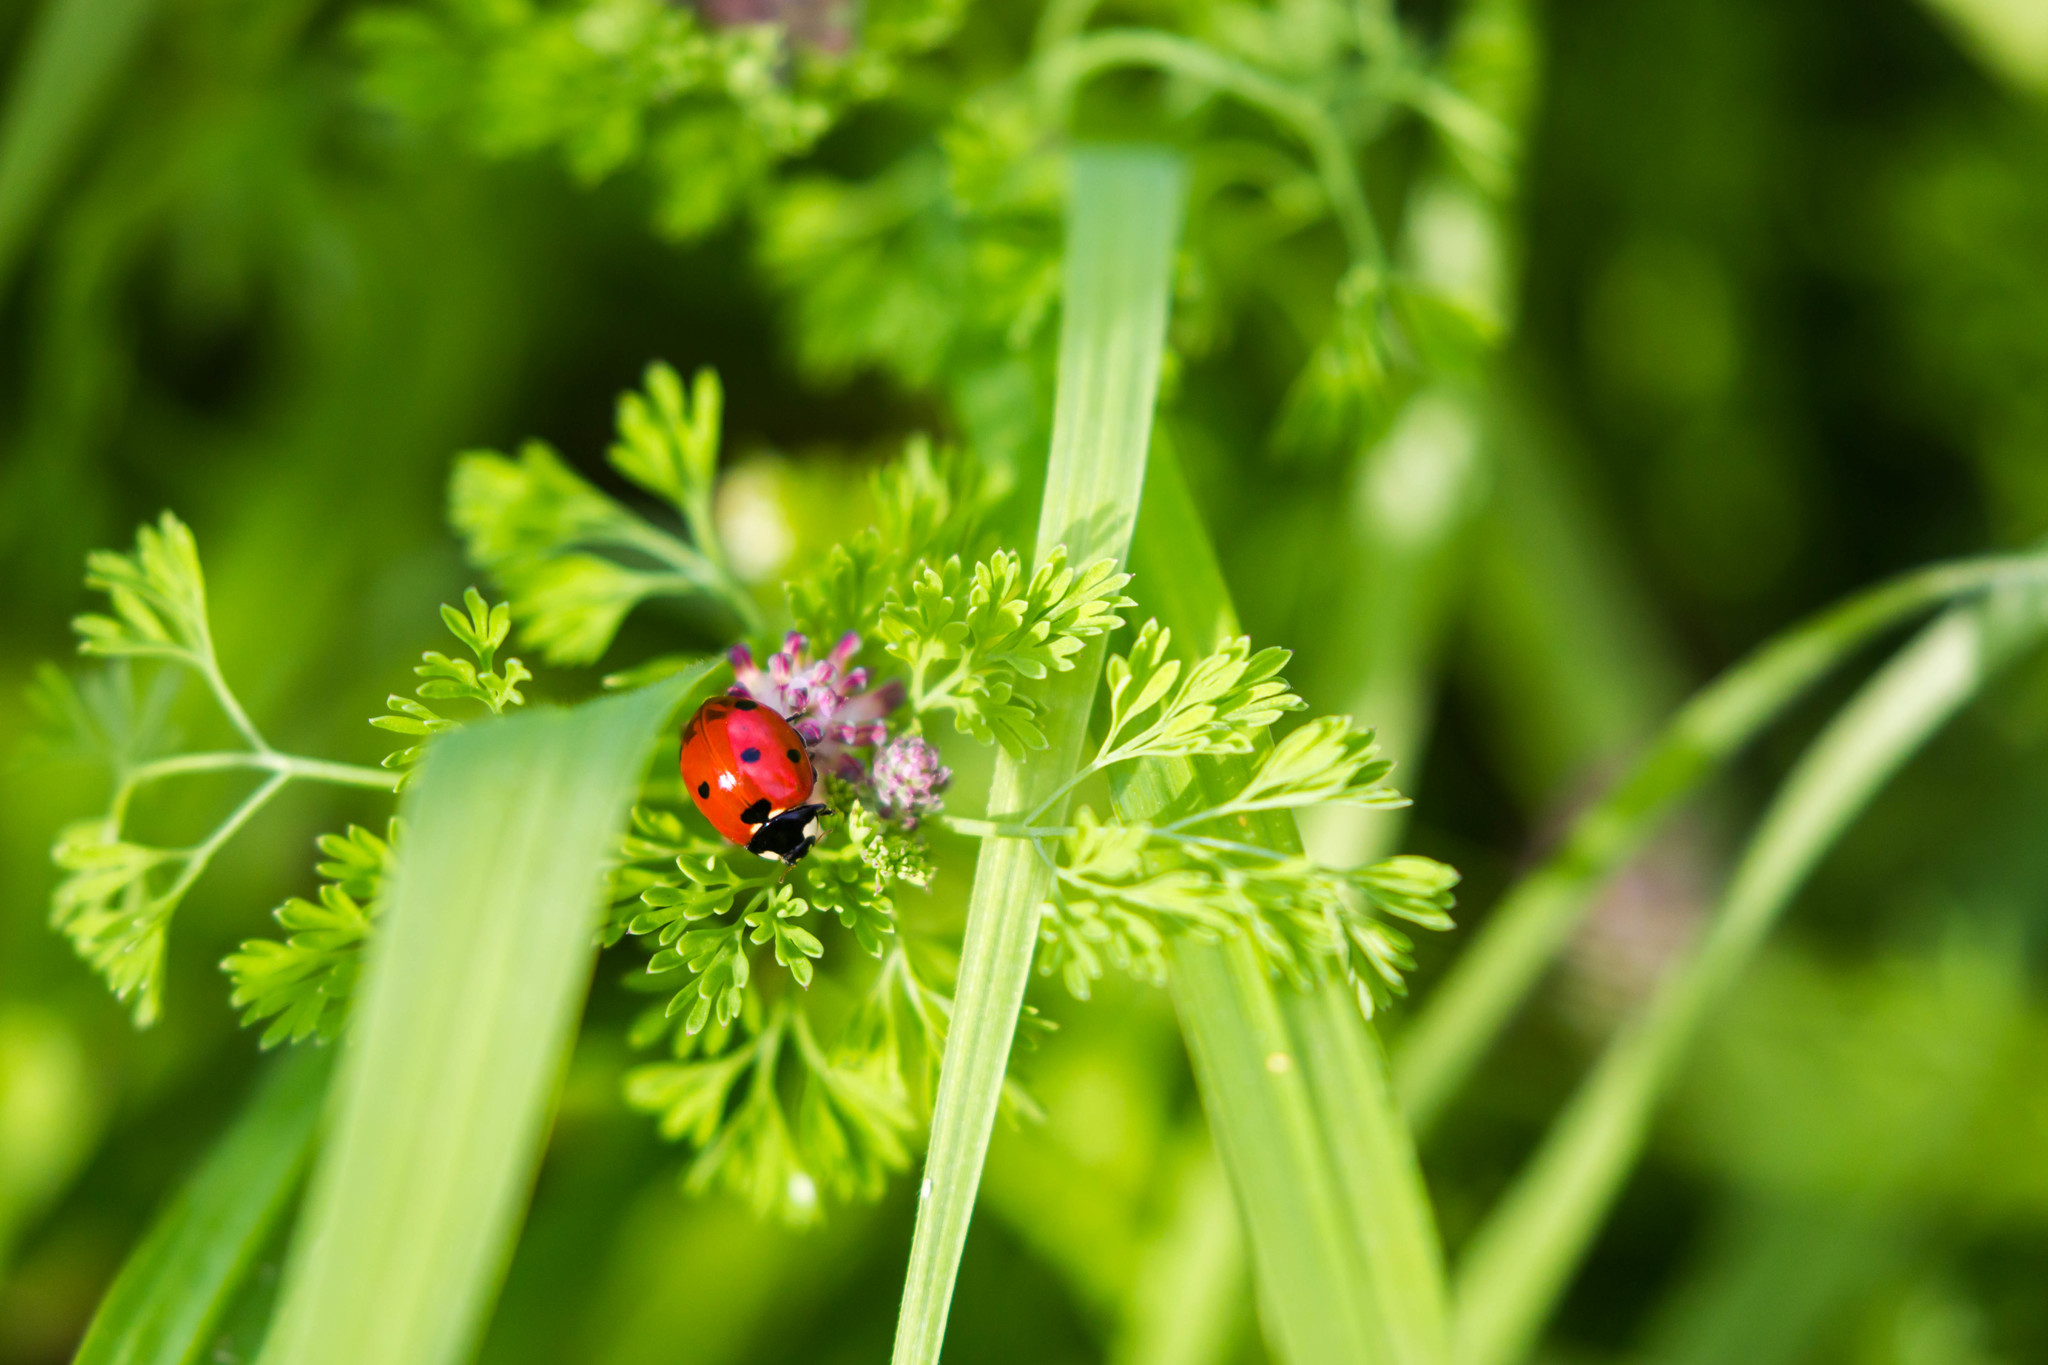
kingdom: Animalia
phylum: Arthropoda
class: Insecta
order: Coleoptera
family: Coccinellidae
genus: Coccinella
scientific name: Coccinella septempunctata
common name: Sevenspotted lady beetle
